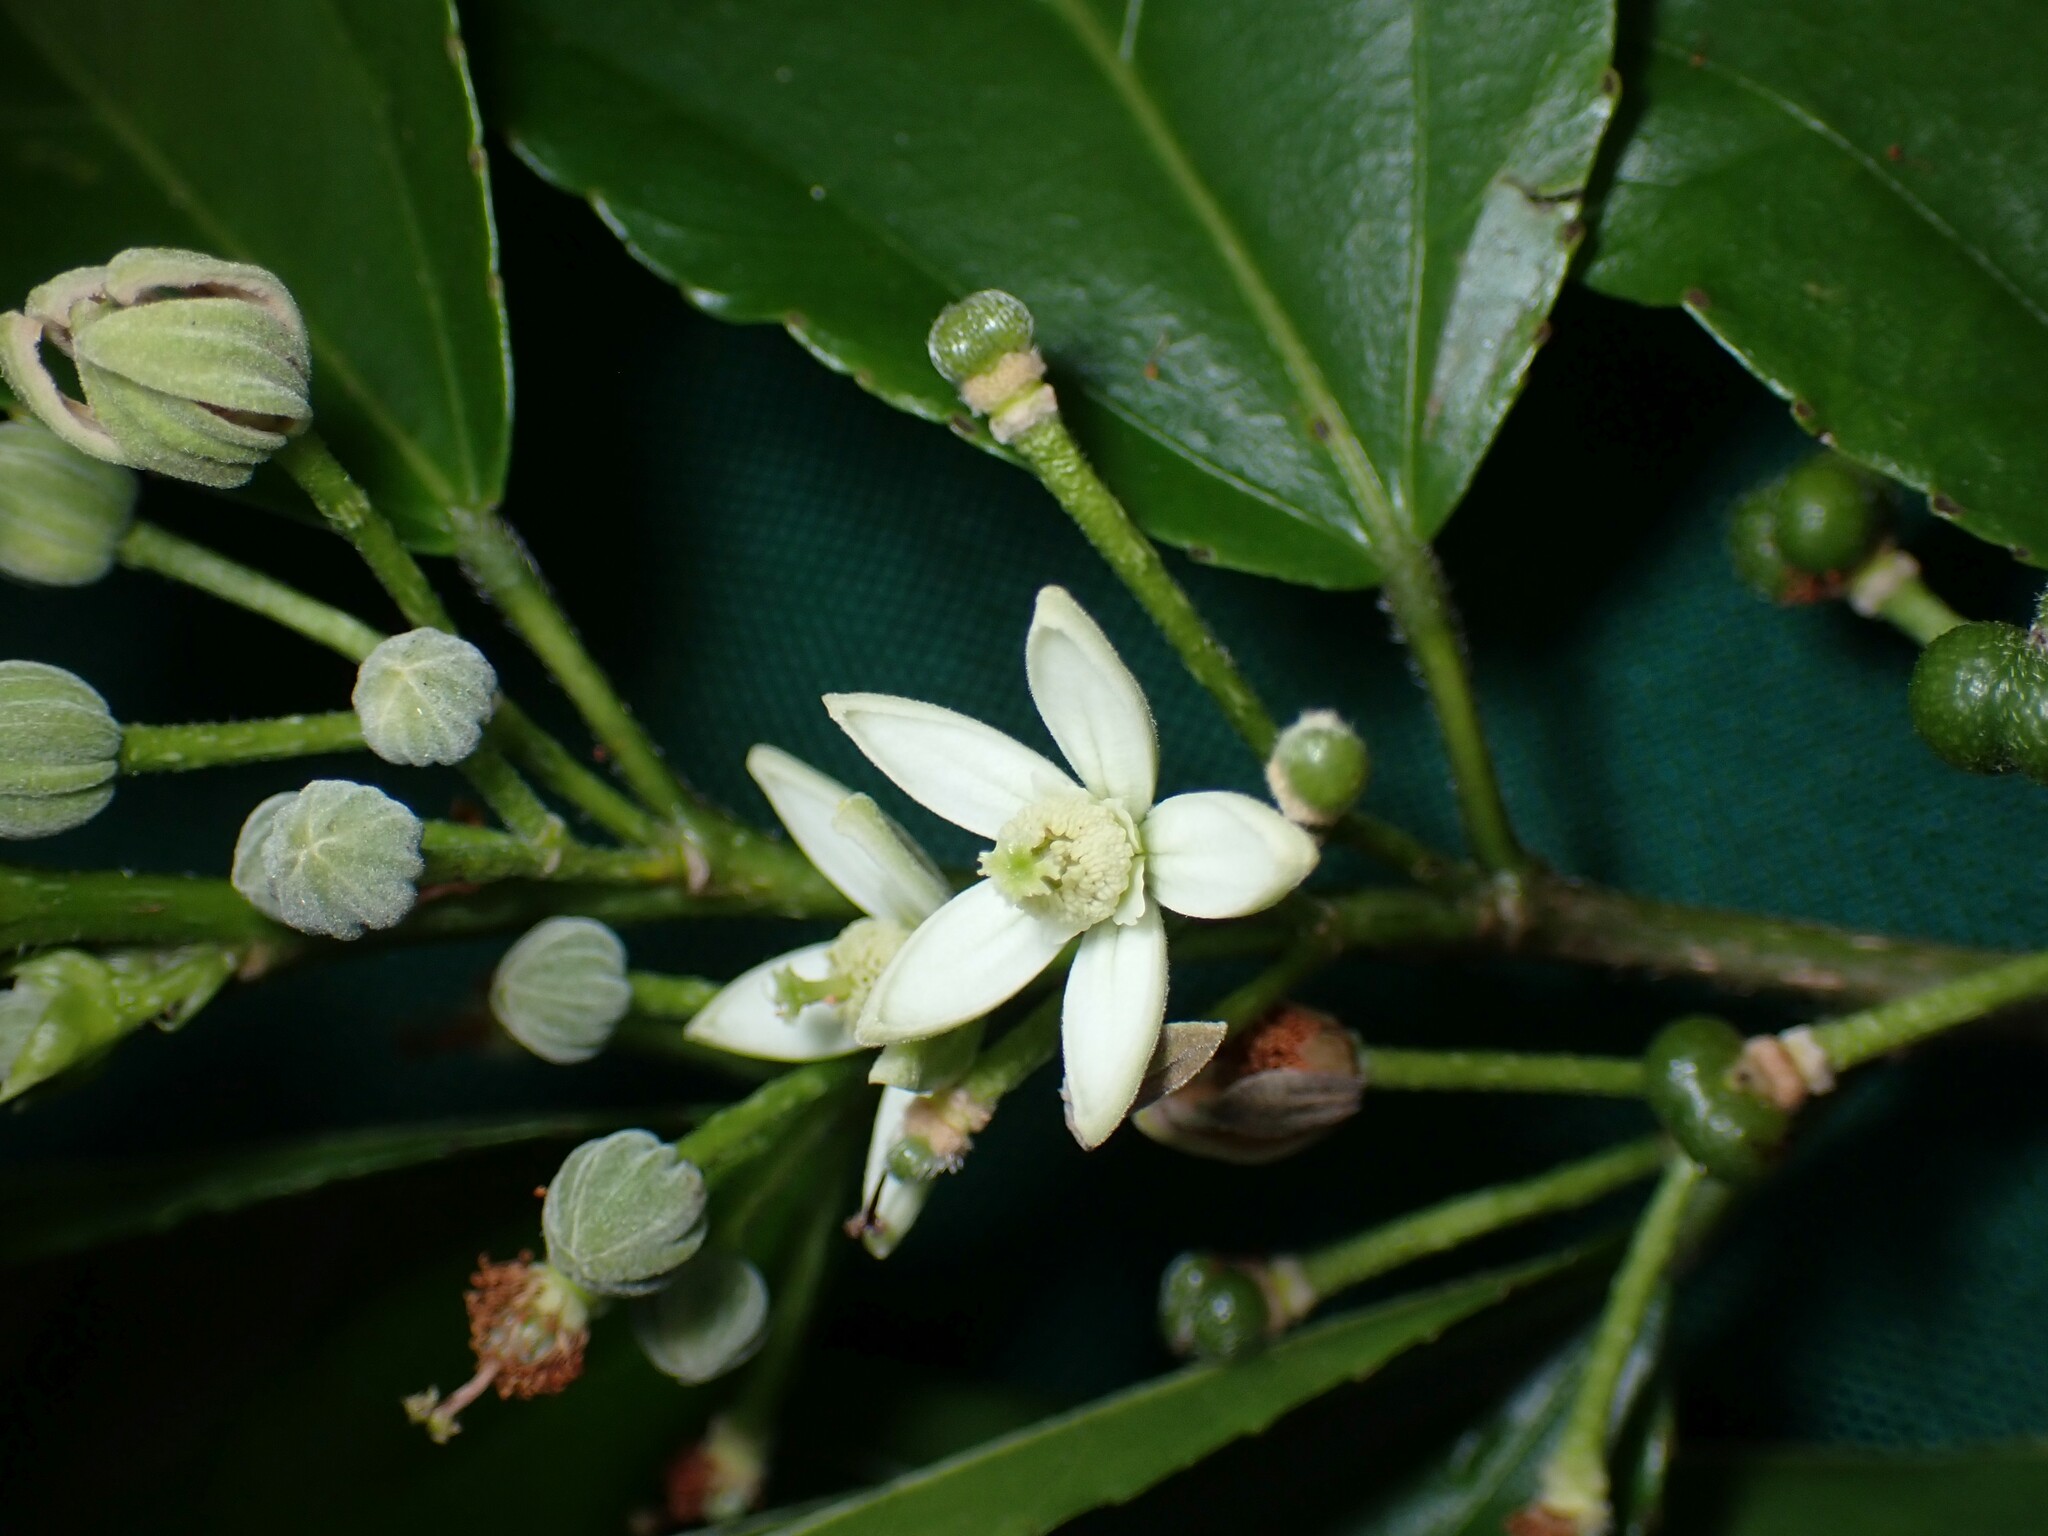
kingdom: Plantae
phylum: Tracheophyta
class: Magnoliopsida
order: Malvales
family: Malvaceae
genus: Grewia
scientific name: Grewia crenata
